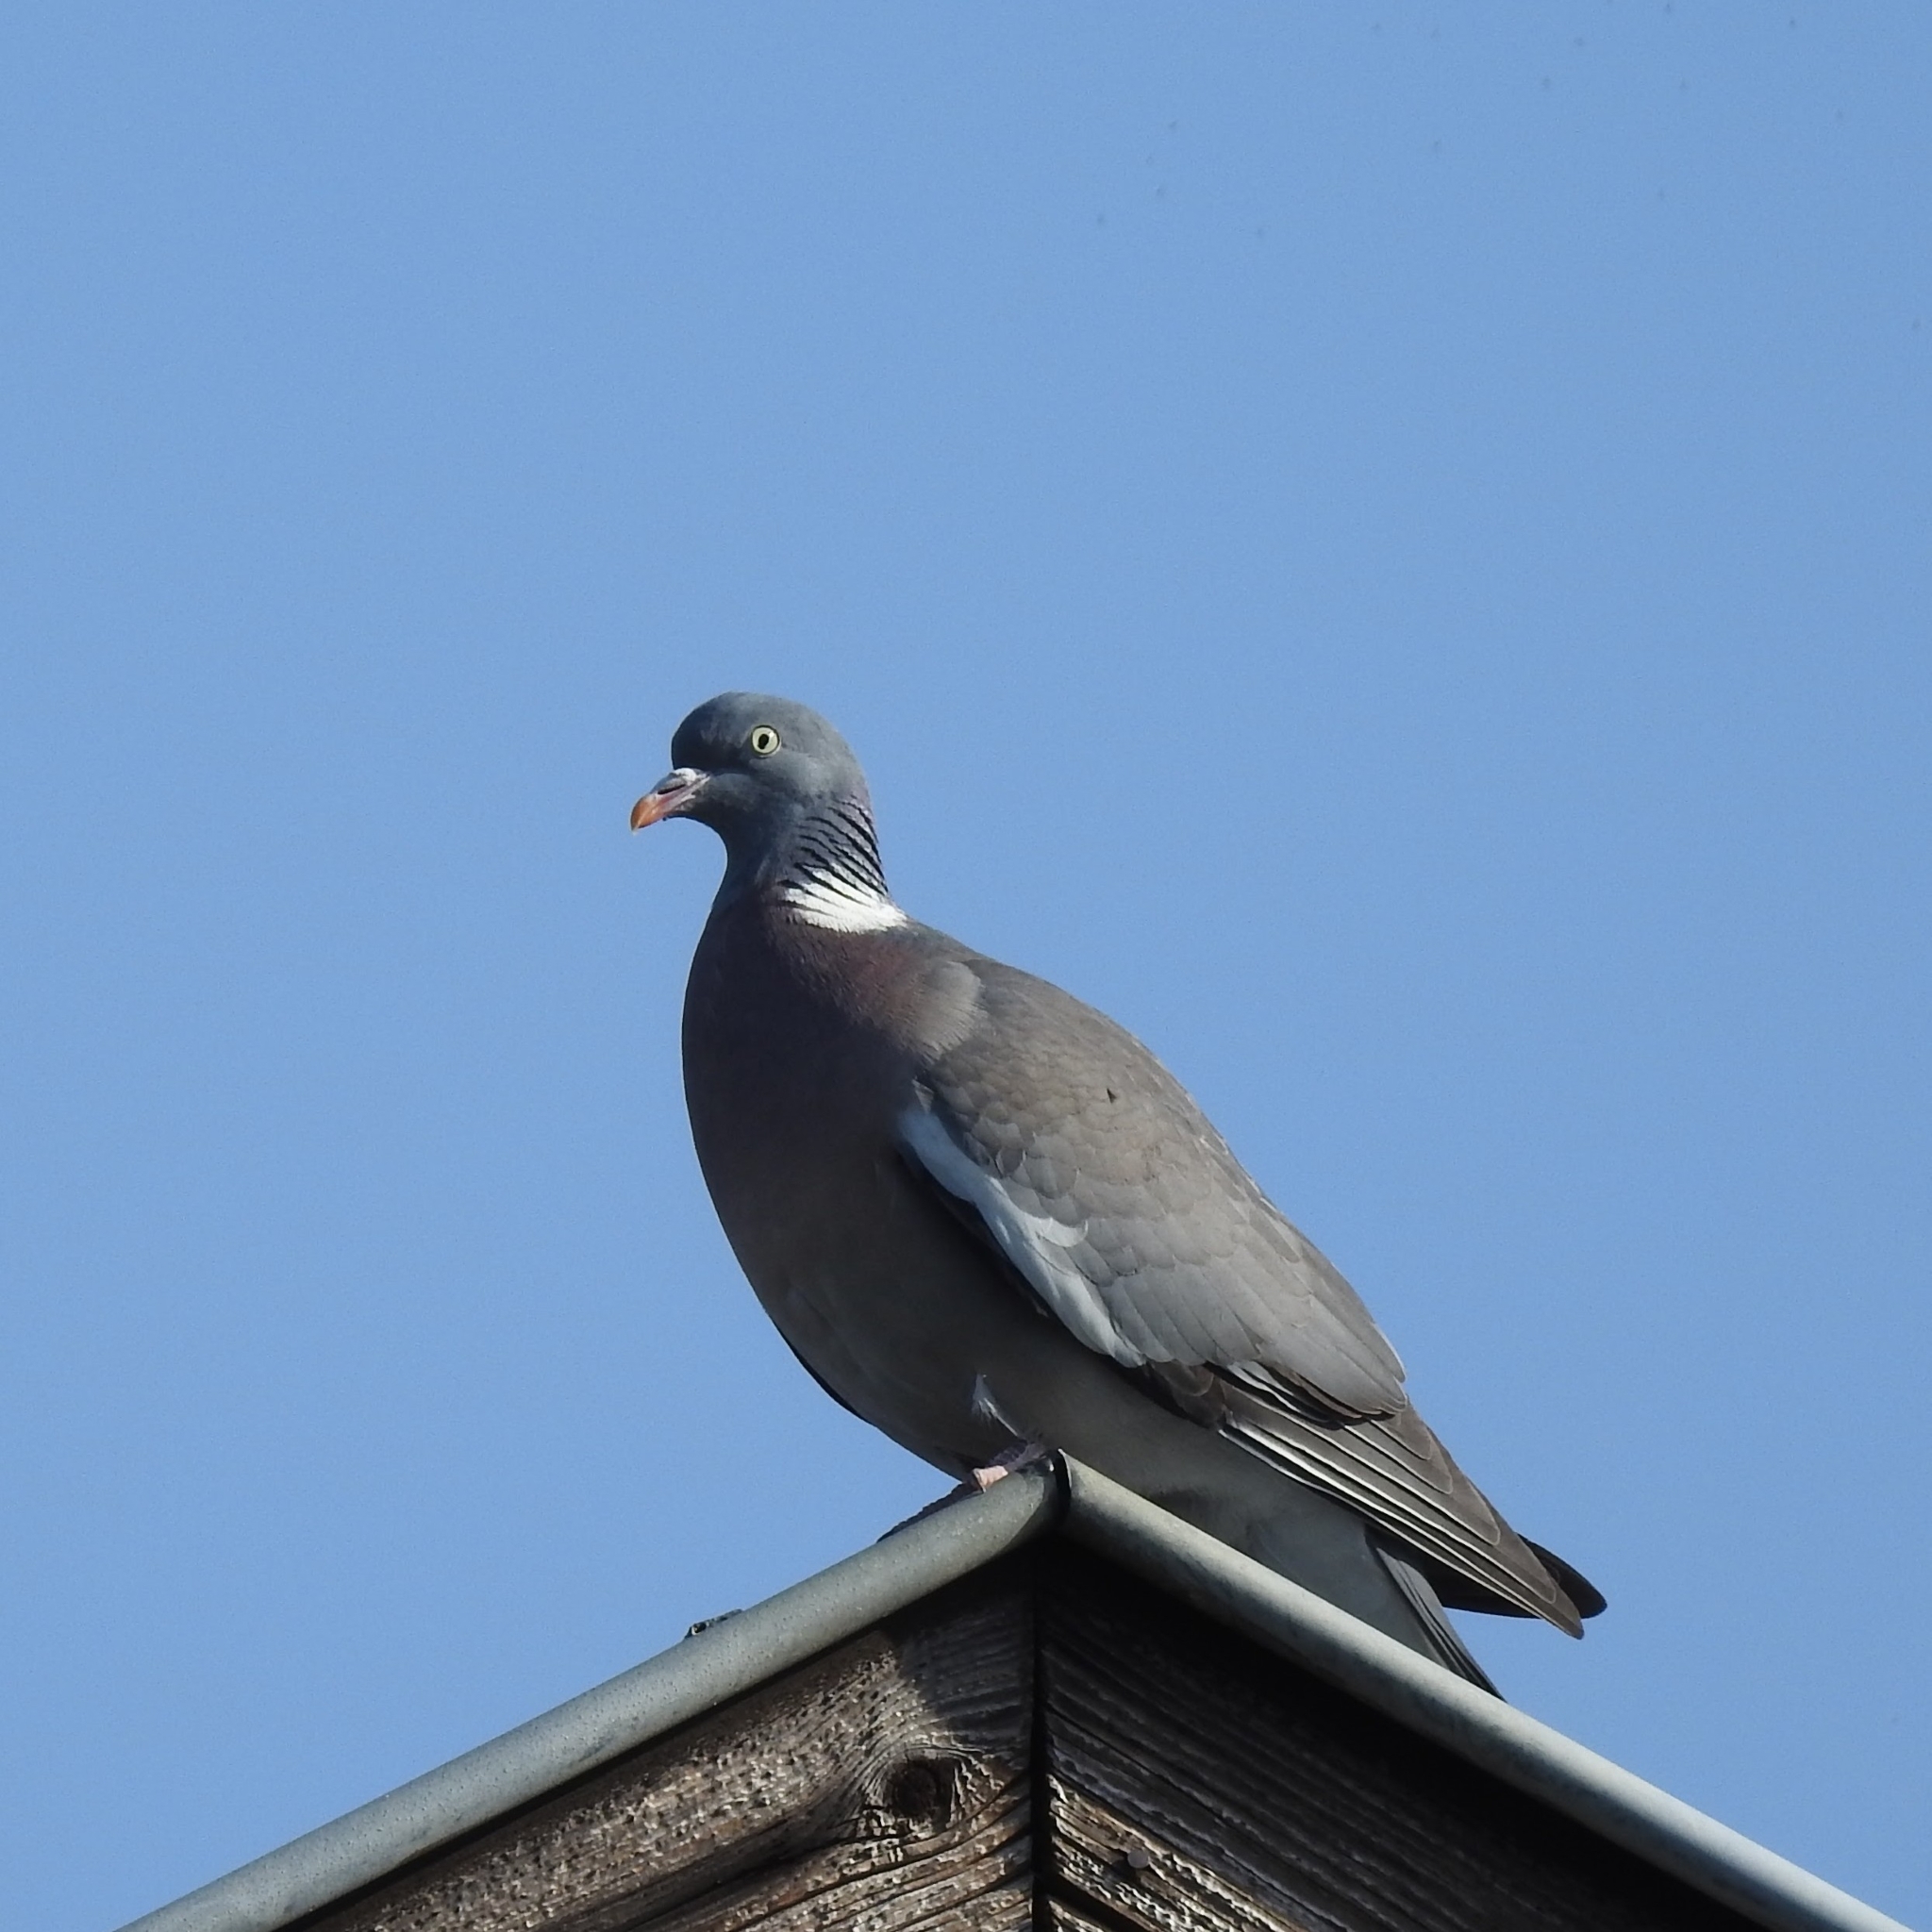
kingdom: Animalia
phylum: Chordata
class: Aves
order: Columbiformes
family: Columbidae
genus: Columba
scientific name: Columba palumbus
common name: Common wood pigeon
